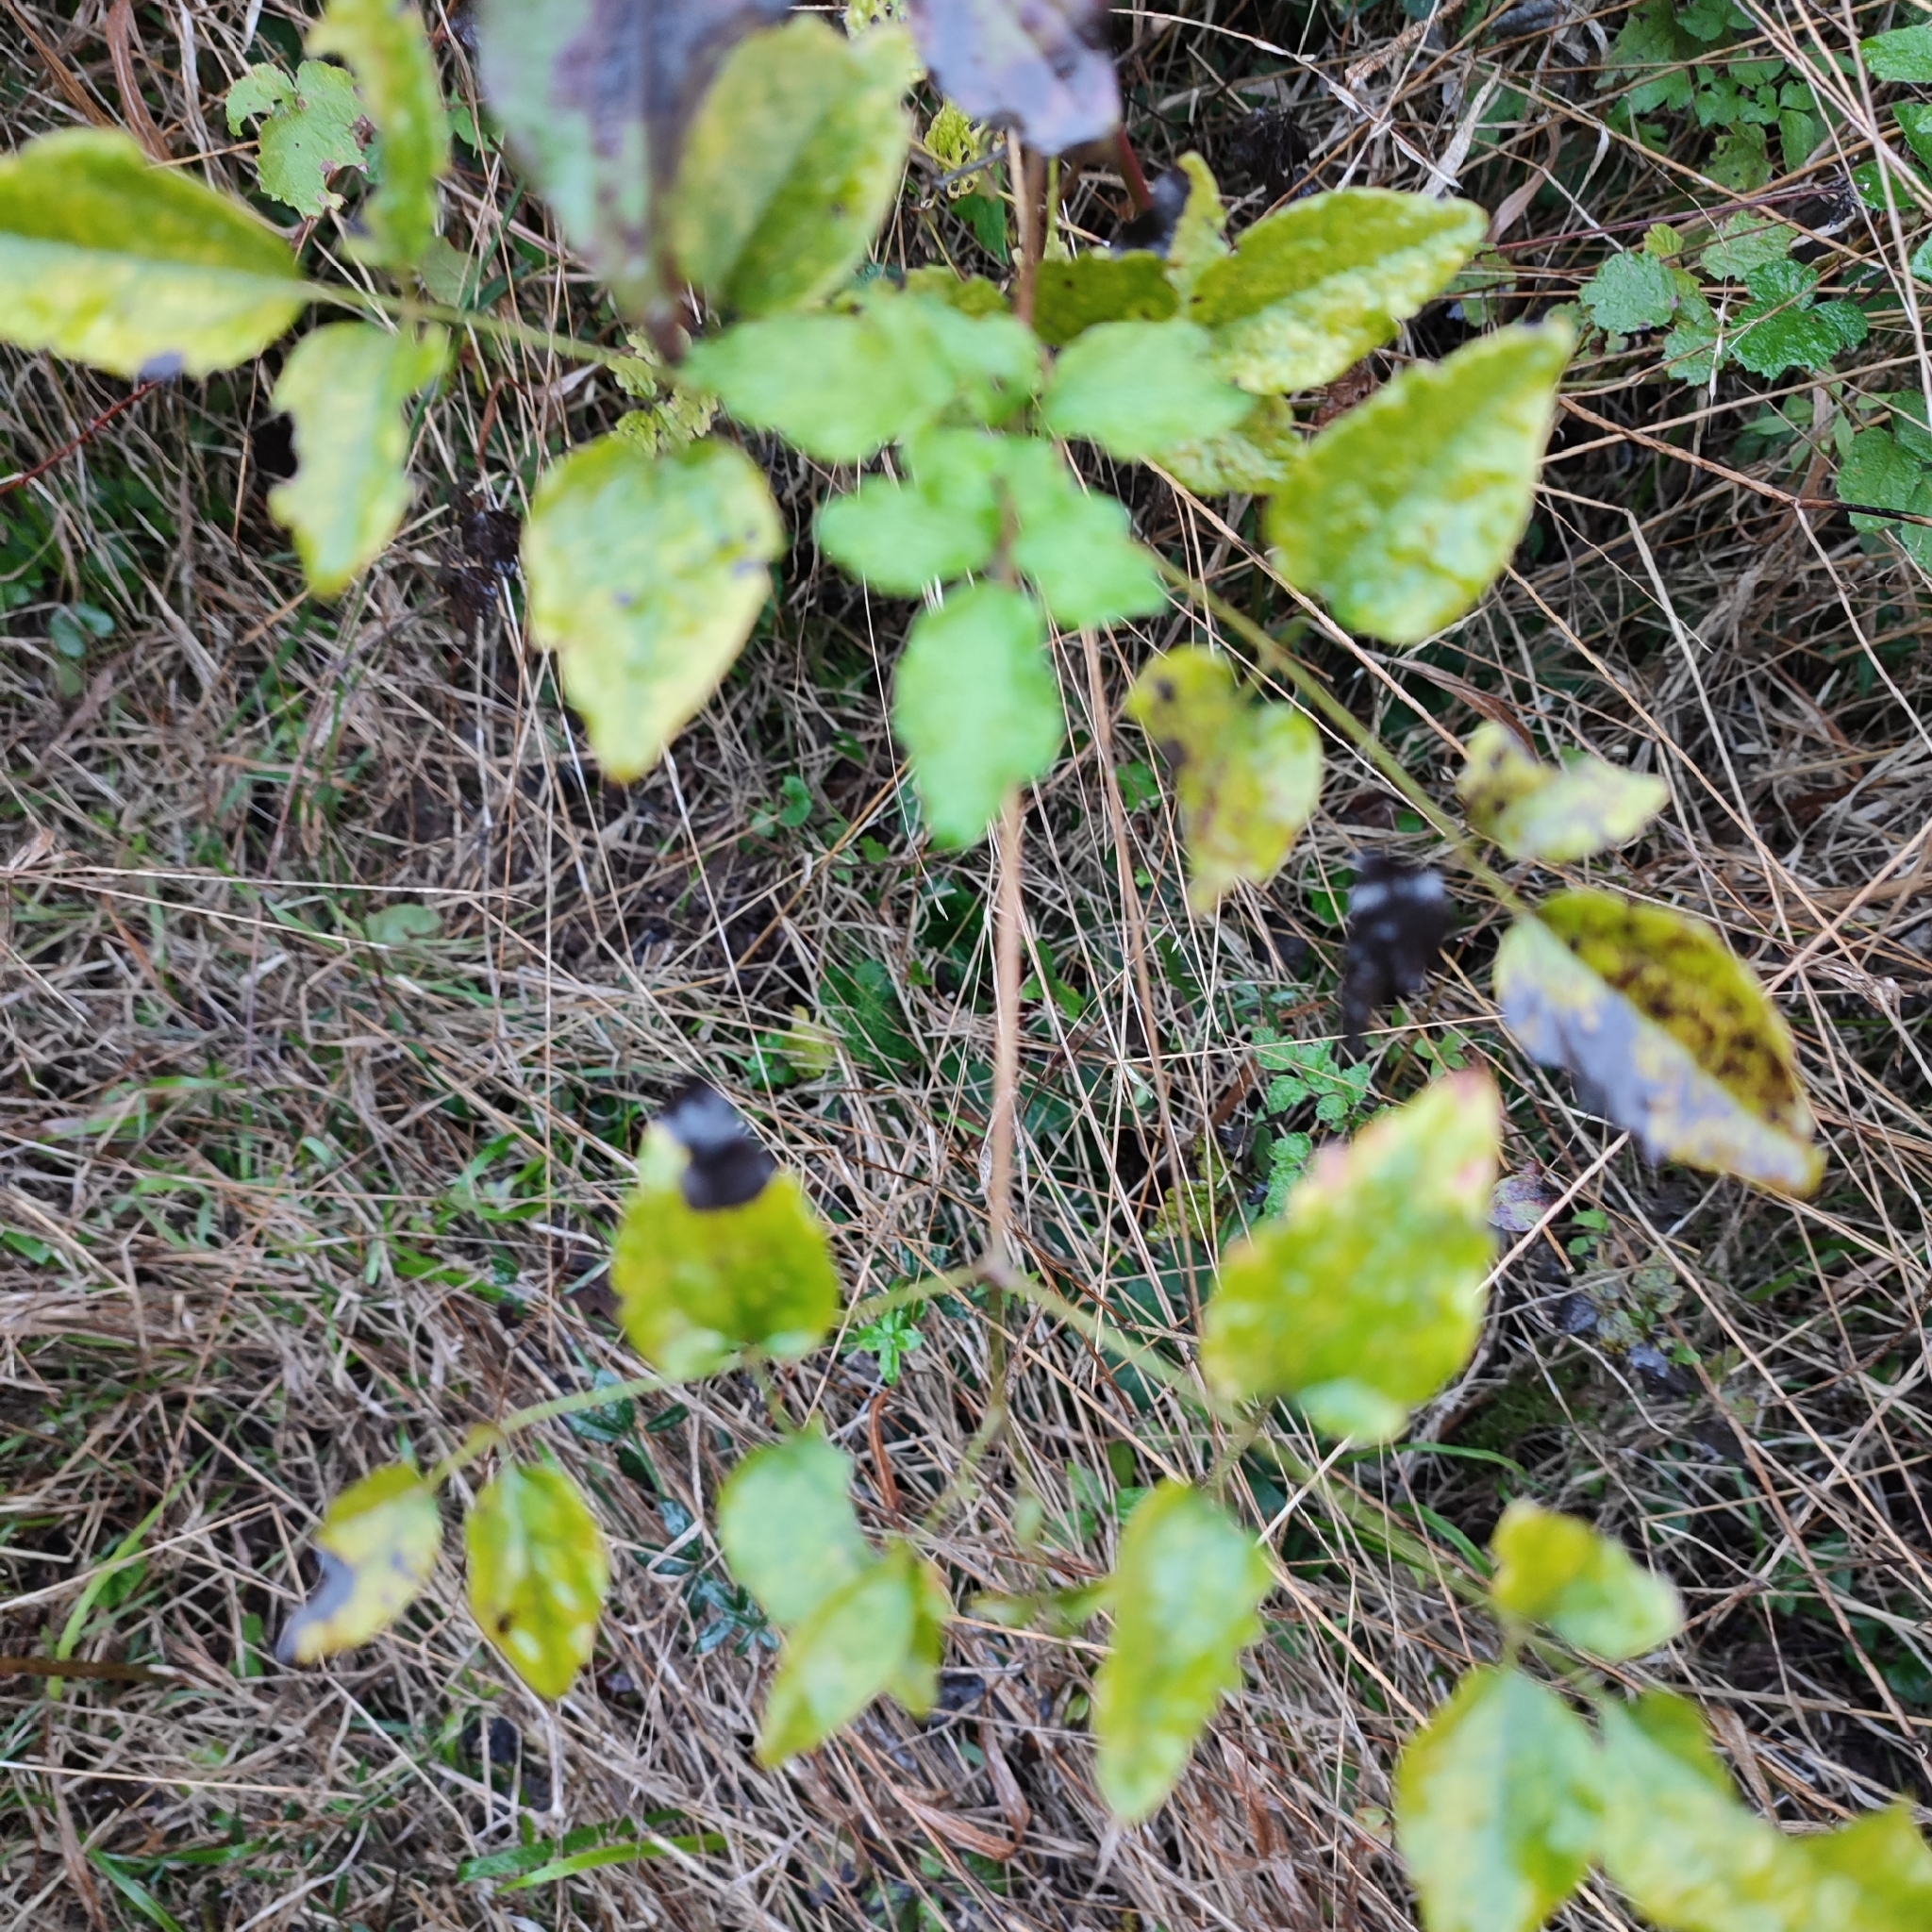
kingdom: Plantae
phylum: Tracheophyta
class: Magnoliopsida
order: Ranunculales
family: Ranunculaceae
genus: Clematis
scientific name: Clematis vitalba
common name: Evergreen clematis
